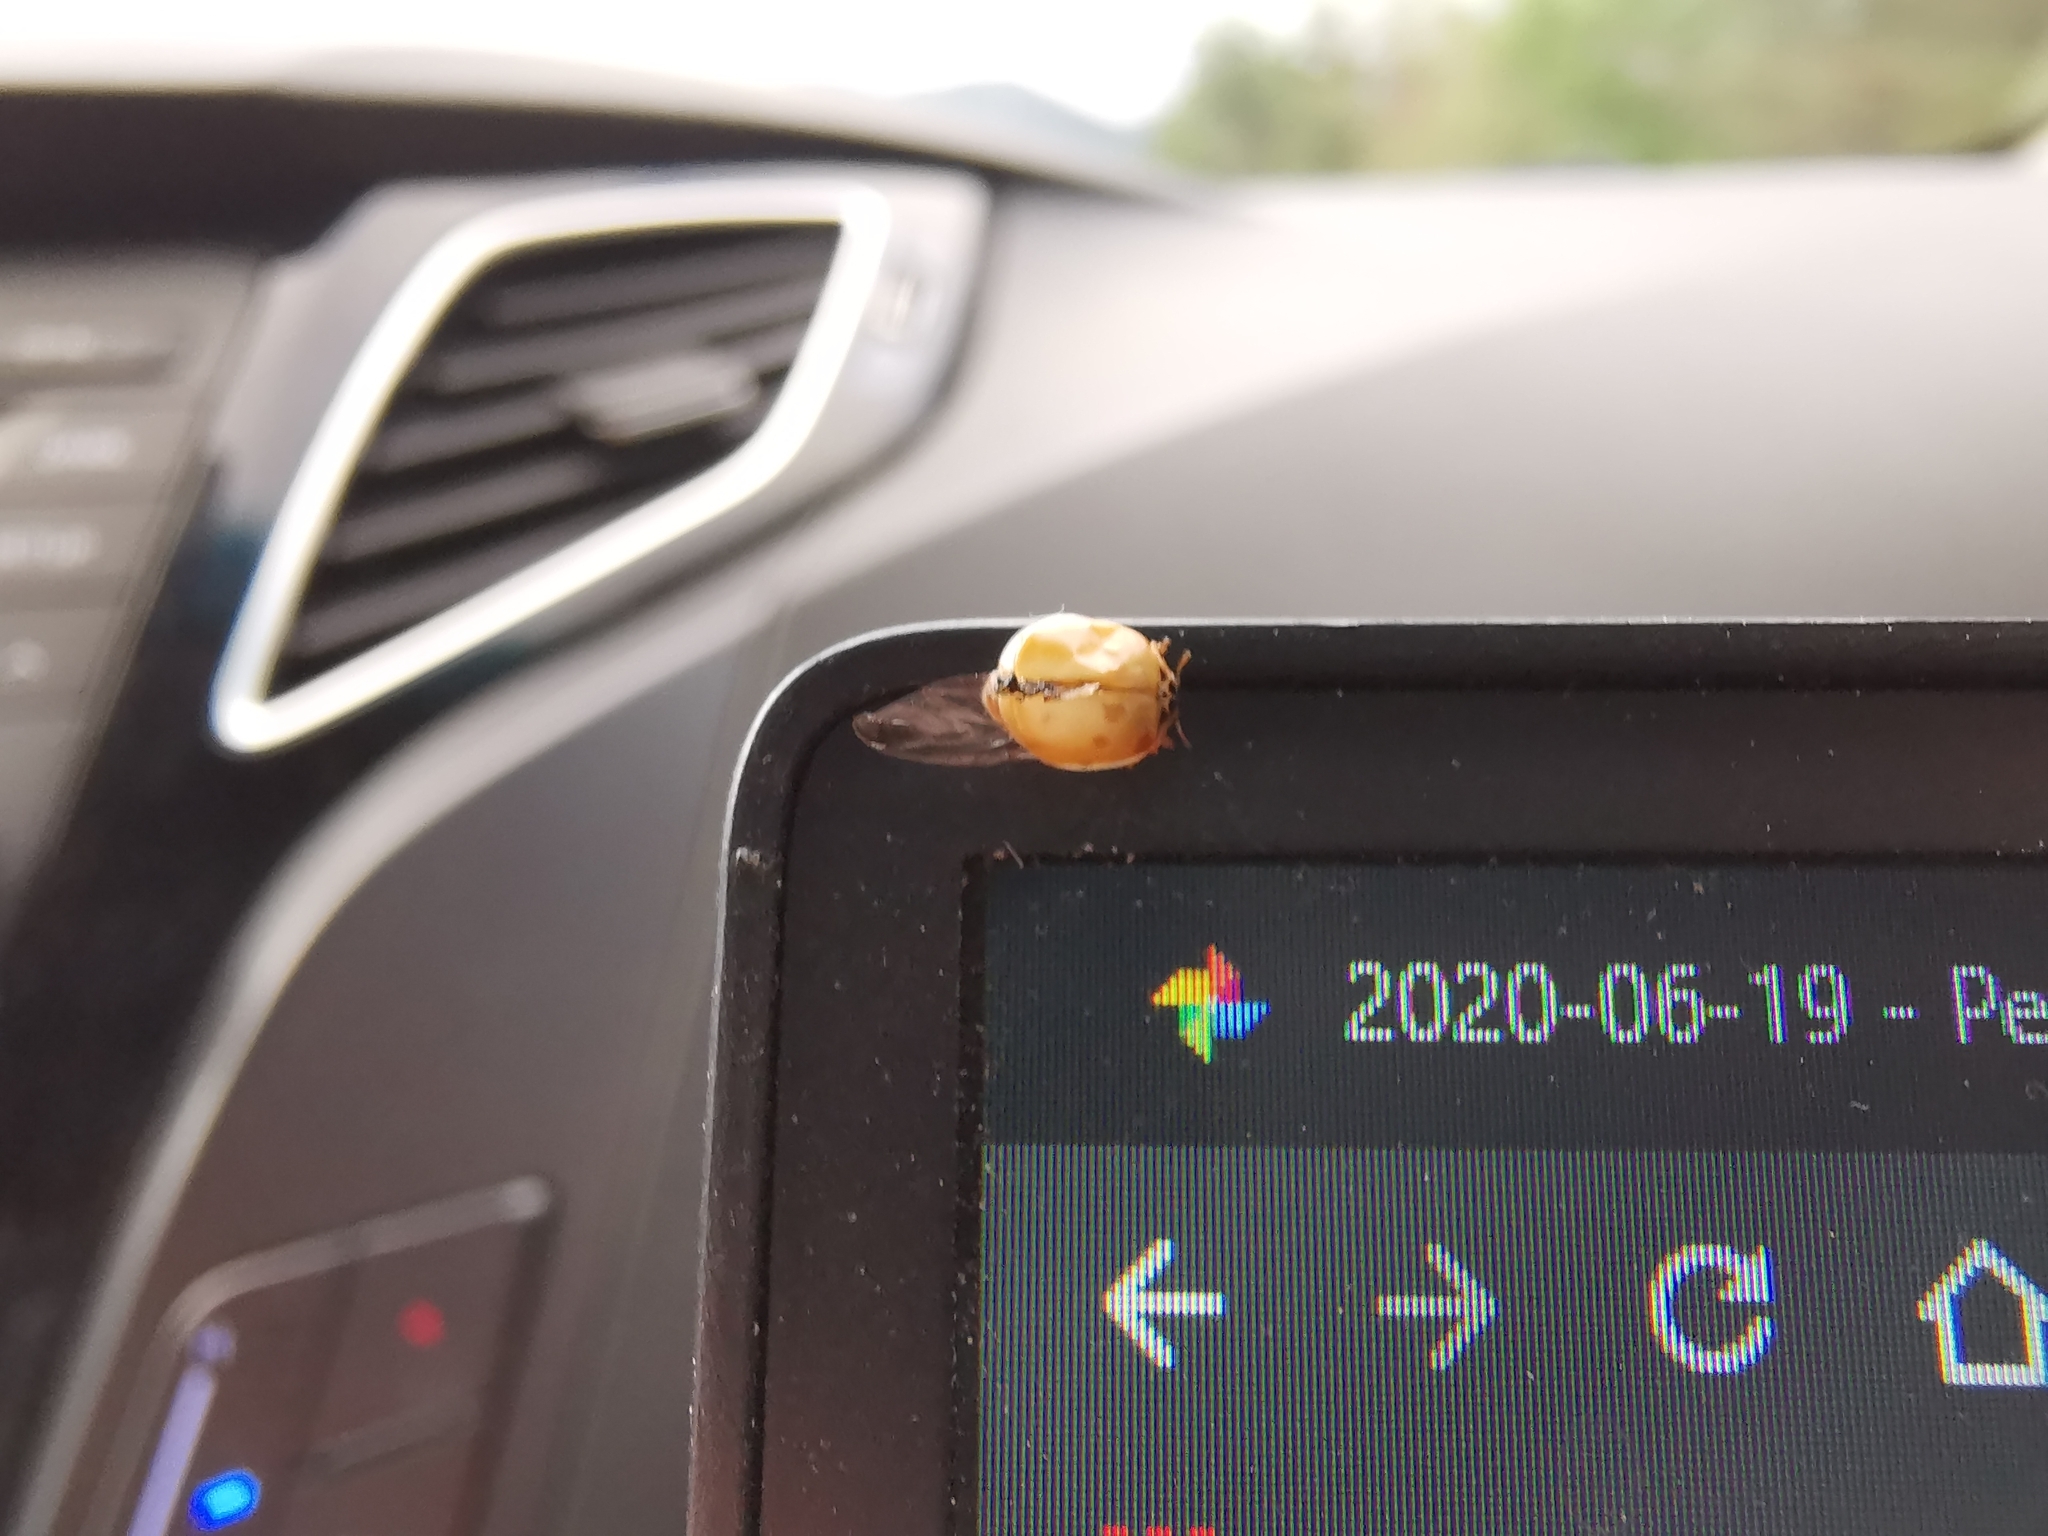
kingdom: Animalia
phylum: Arthropoda
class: Insecta
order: Coleoptera
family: Coccinellidae
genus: Adalia
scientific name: Adalia decempunctata
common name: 10-spot ladybird
